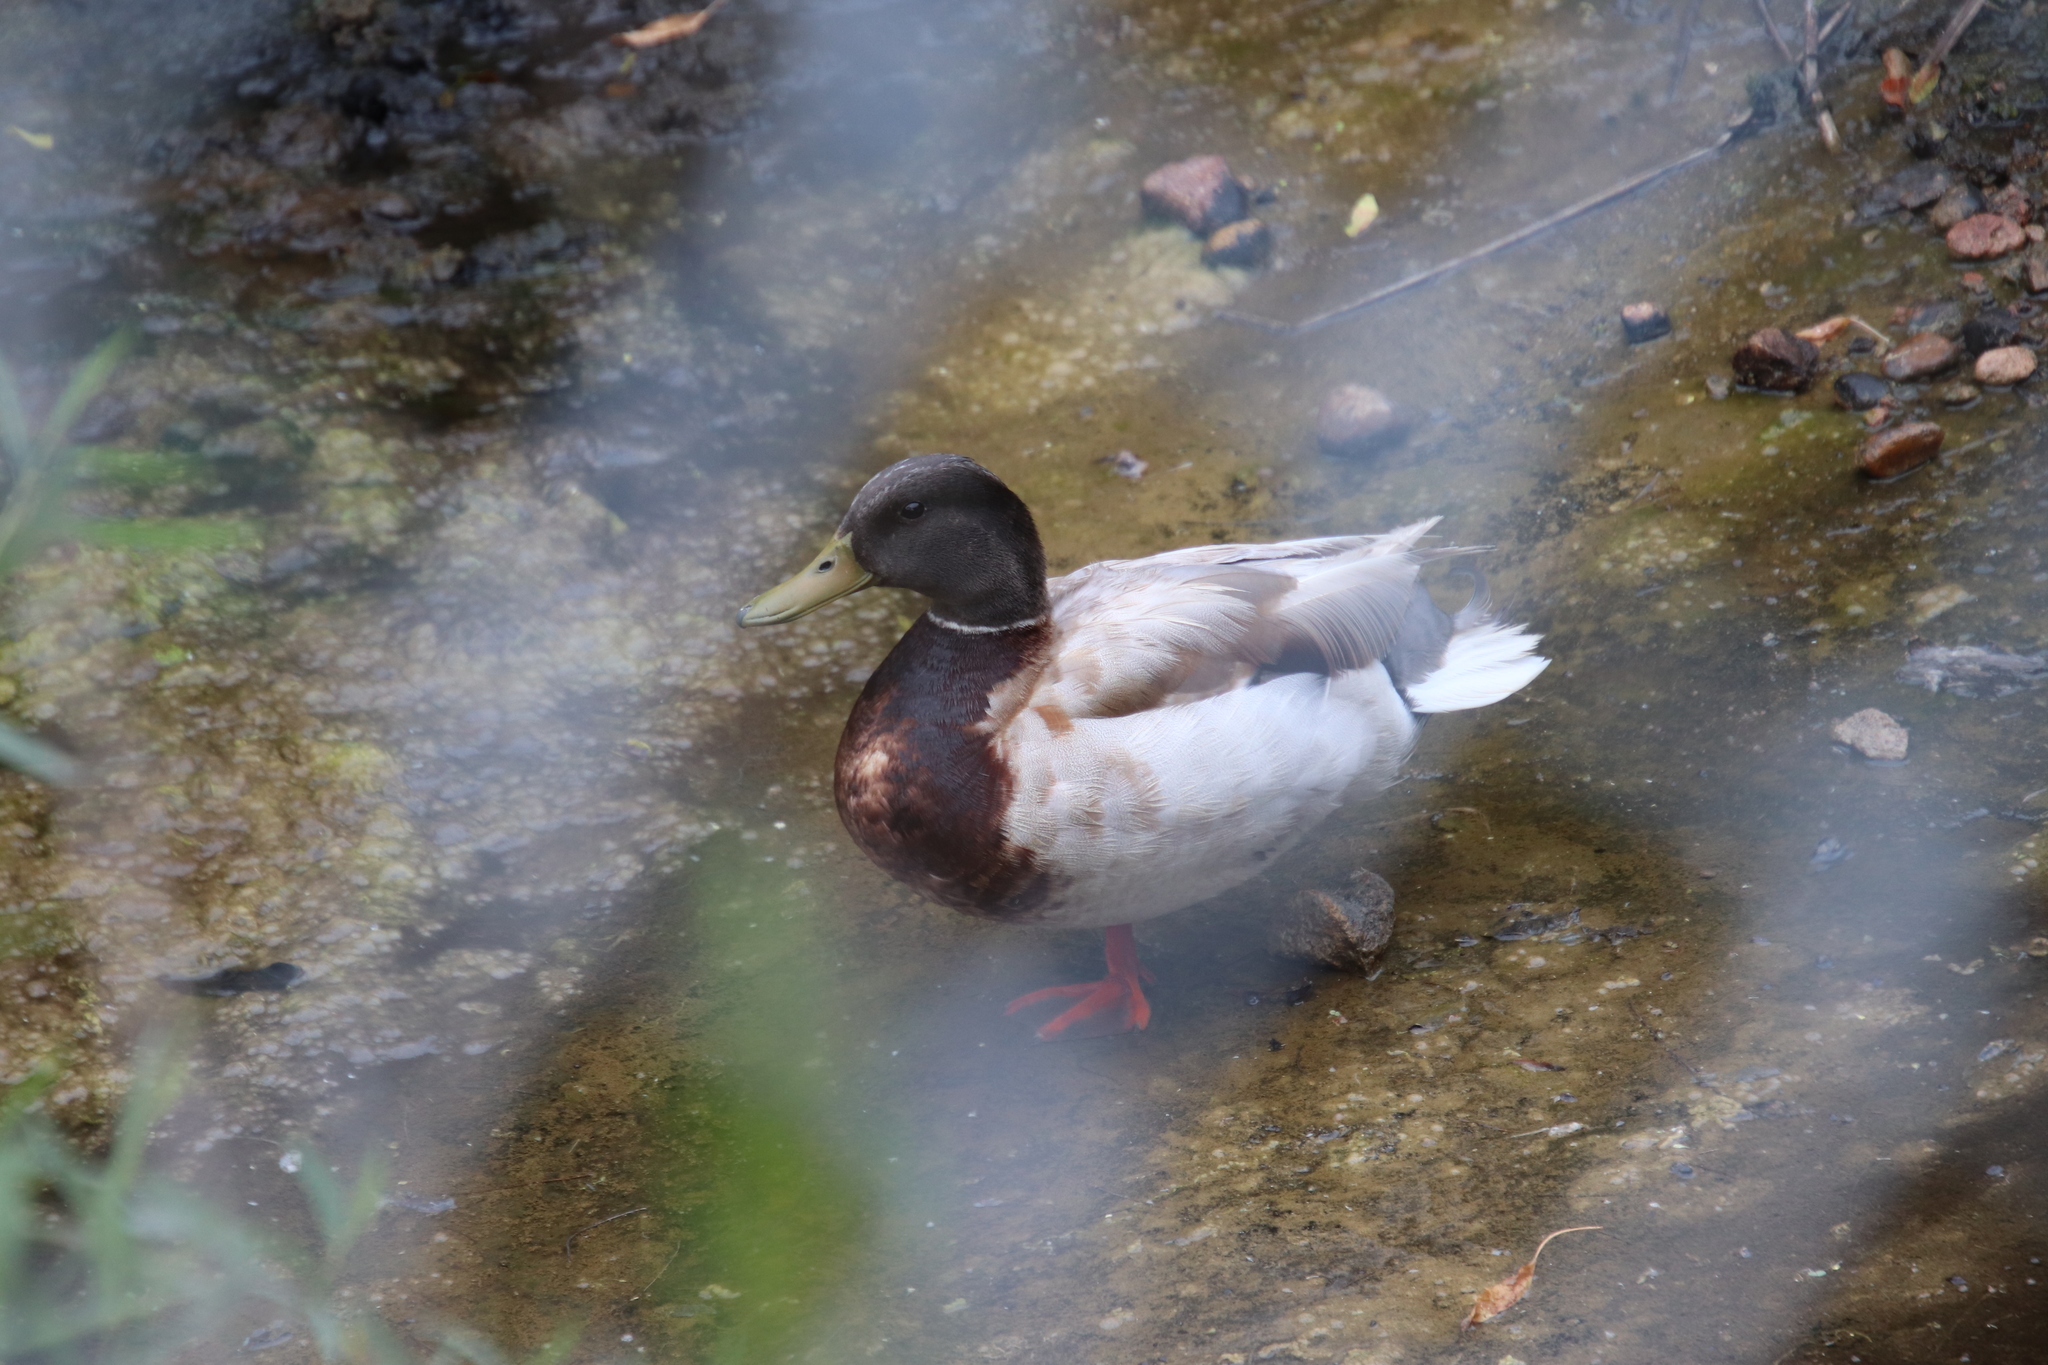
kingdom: Animalia
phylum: Chordata
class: Aves
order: Anseriformes
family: Anatidae
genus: Anas
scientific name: Anas platyrhynchos
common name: Mallard
